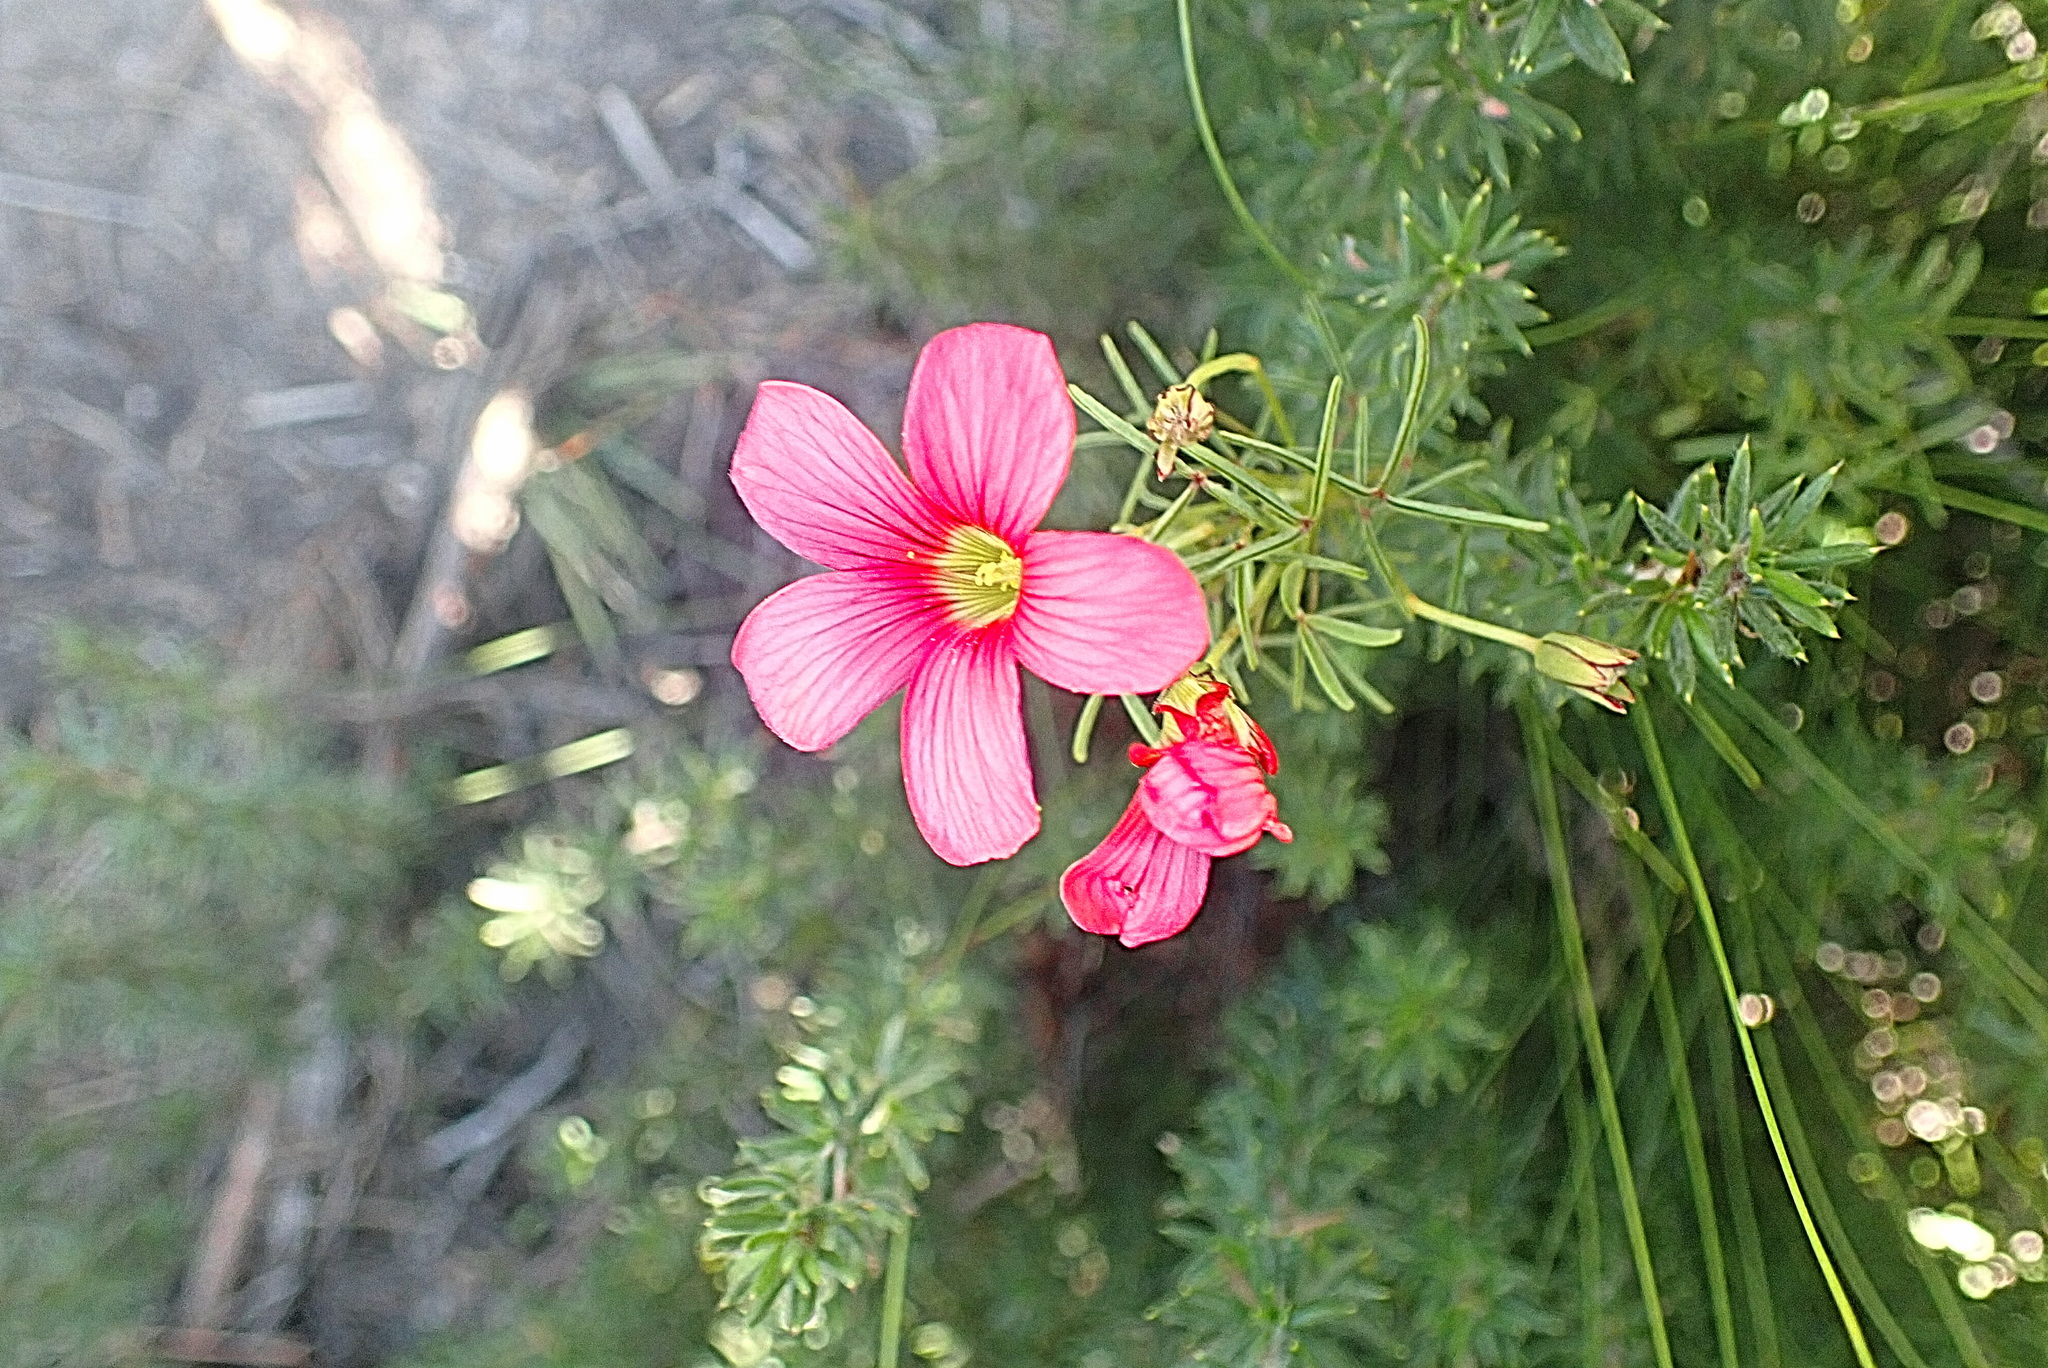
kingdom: Plantae
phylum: Tracheophyta
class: Magnoliopsida
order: Oxalidales
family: Oxalidaceae
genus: Oxalis
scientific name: Oxalis pendulifolia
